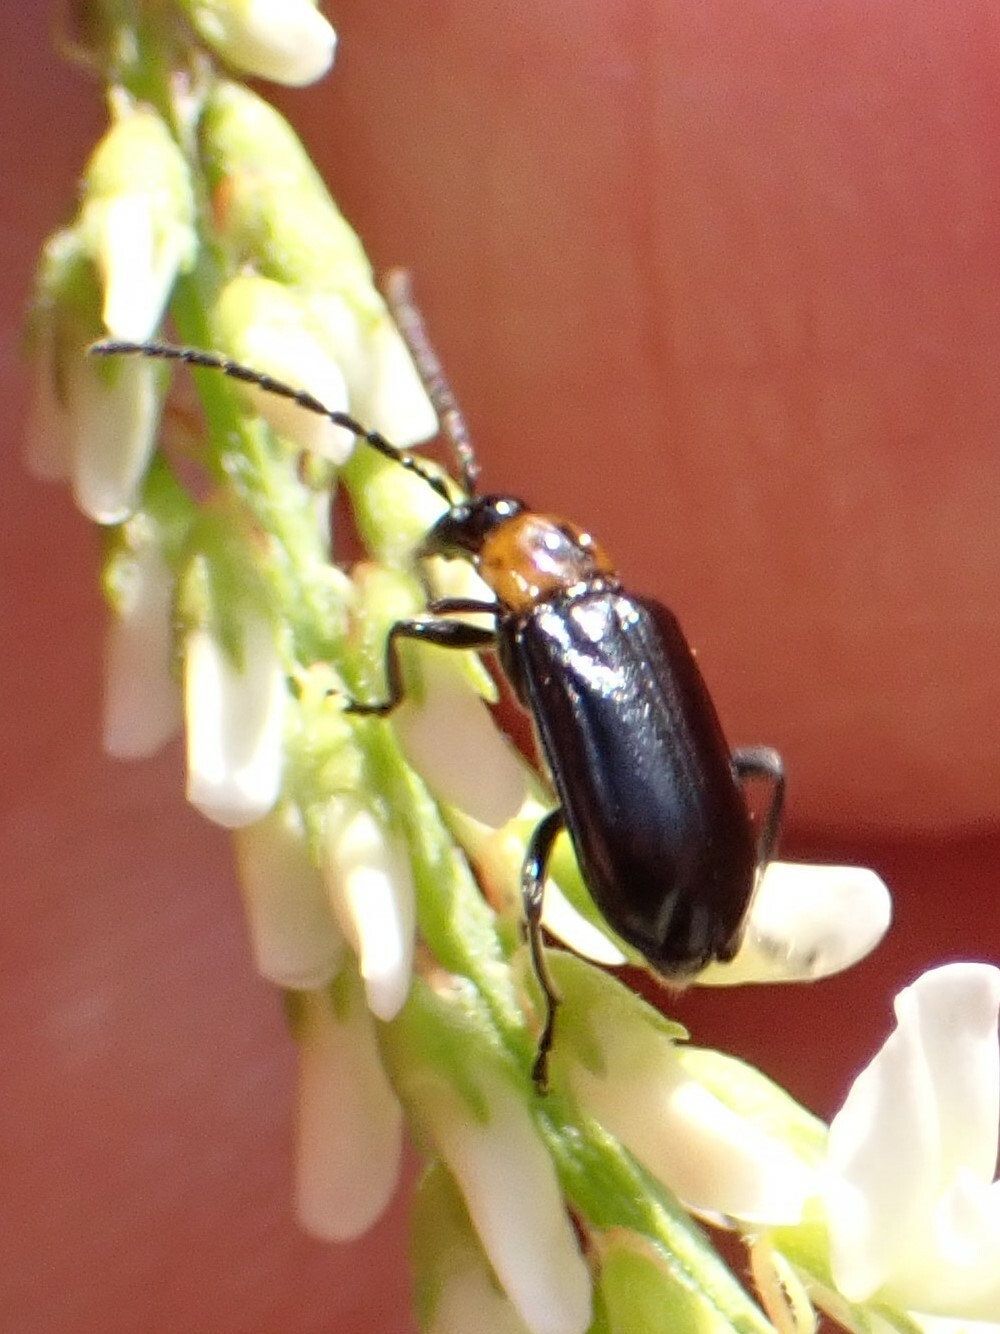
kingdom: Animalia
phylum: Arthropoda
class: Insecta
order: Coleoptera
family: Chrysomelidae
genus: Diabrotica
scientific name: Diabrotica cristata
